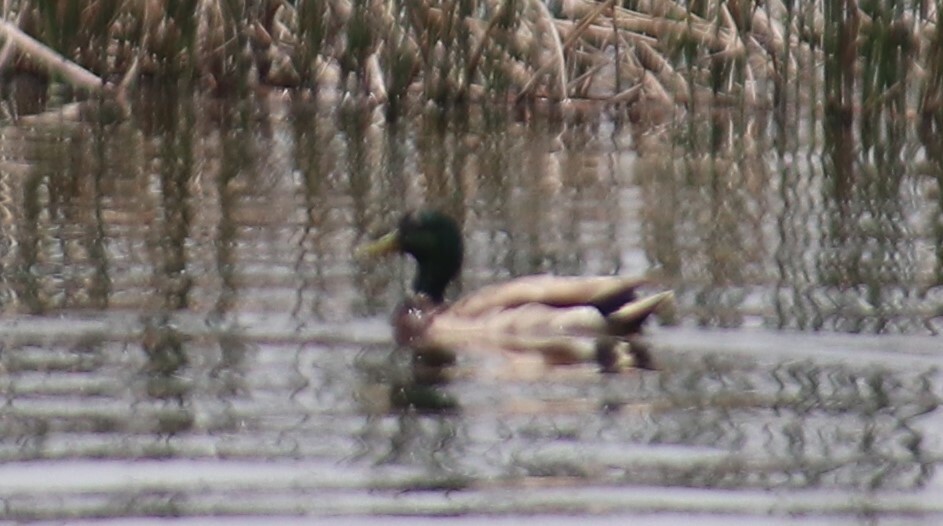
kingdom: Animalia
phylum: Chordata
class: Aves
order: Anseriformes
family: Anatidae
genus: Anas
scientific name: Anas platyrhynchos
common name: Mallard
